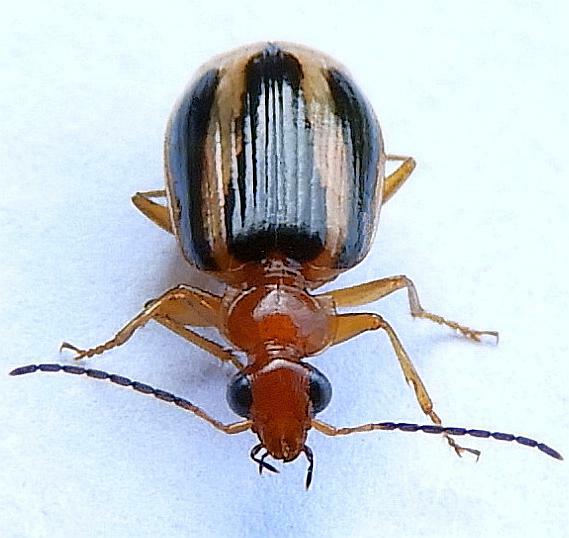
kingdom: Animalia
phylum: Arthropoda
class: Insecta
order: Coleoptera
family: Carabidae
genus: Lebia
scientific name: Lebia solea
